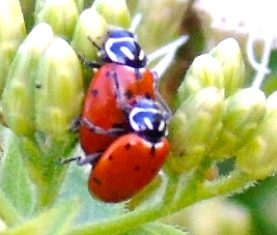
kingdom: Animalia
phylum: Arthropoda
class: Insecta
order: Coleoptera
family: Coccinellidae
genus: Hippodamia
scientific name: Hippodamia convergens
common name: Convergent lady beetle
